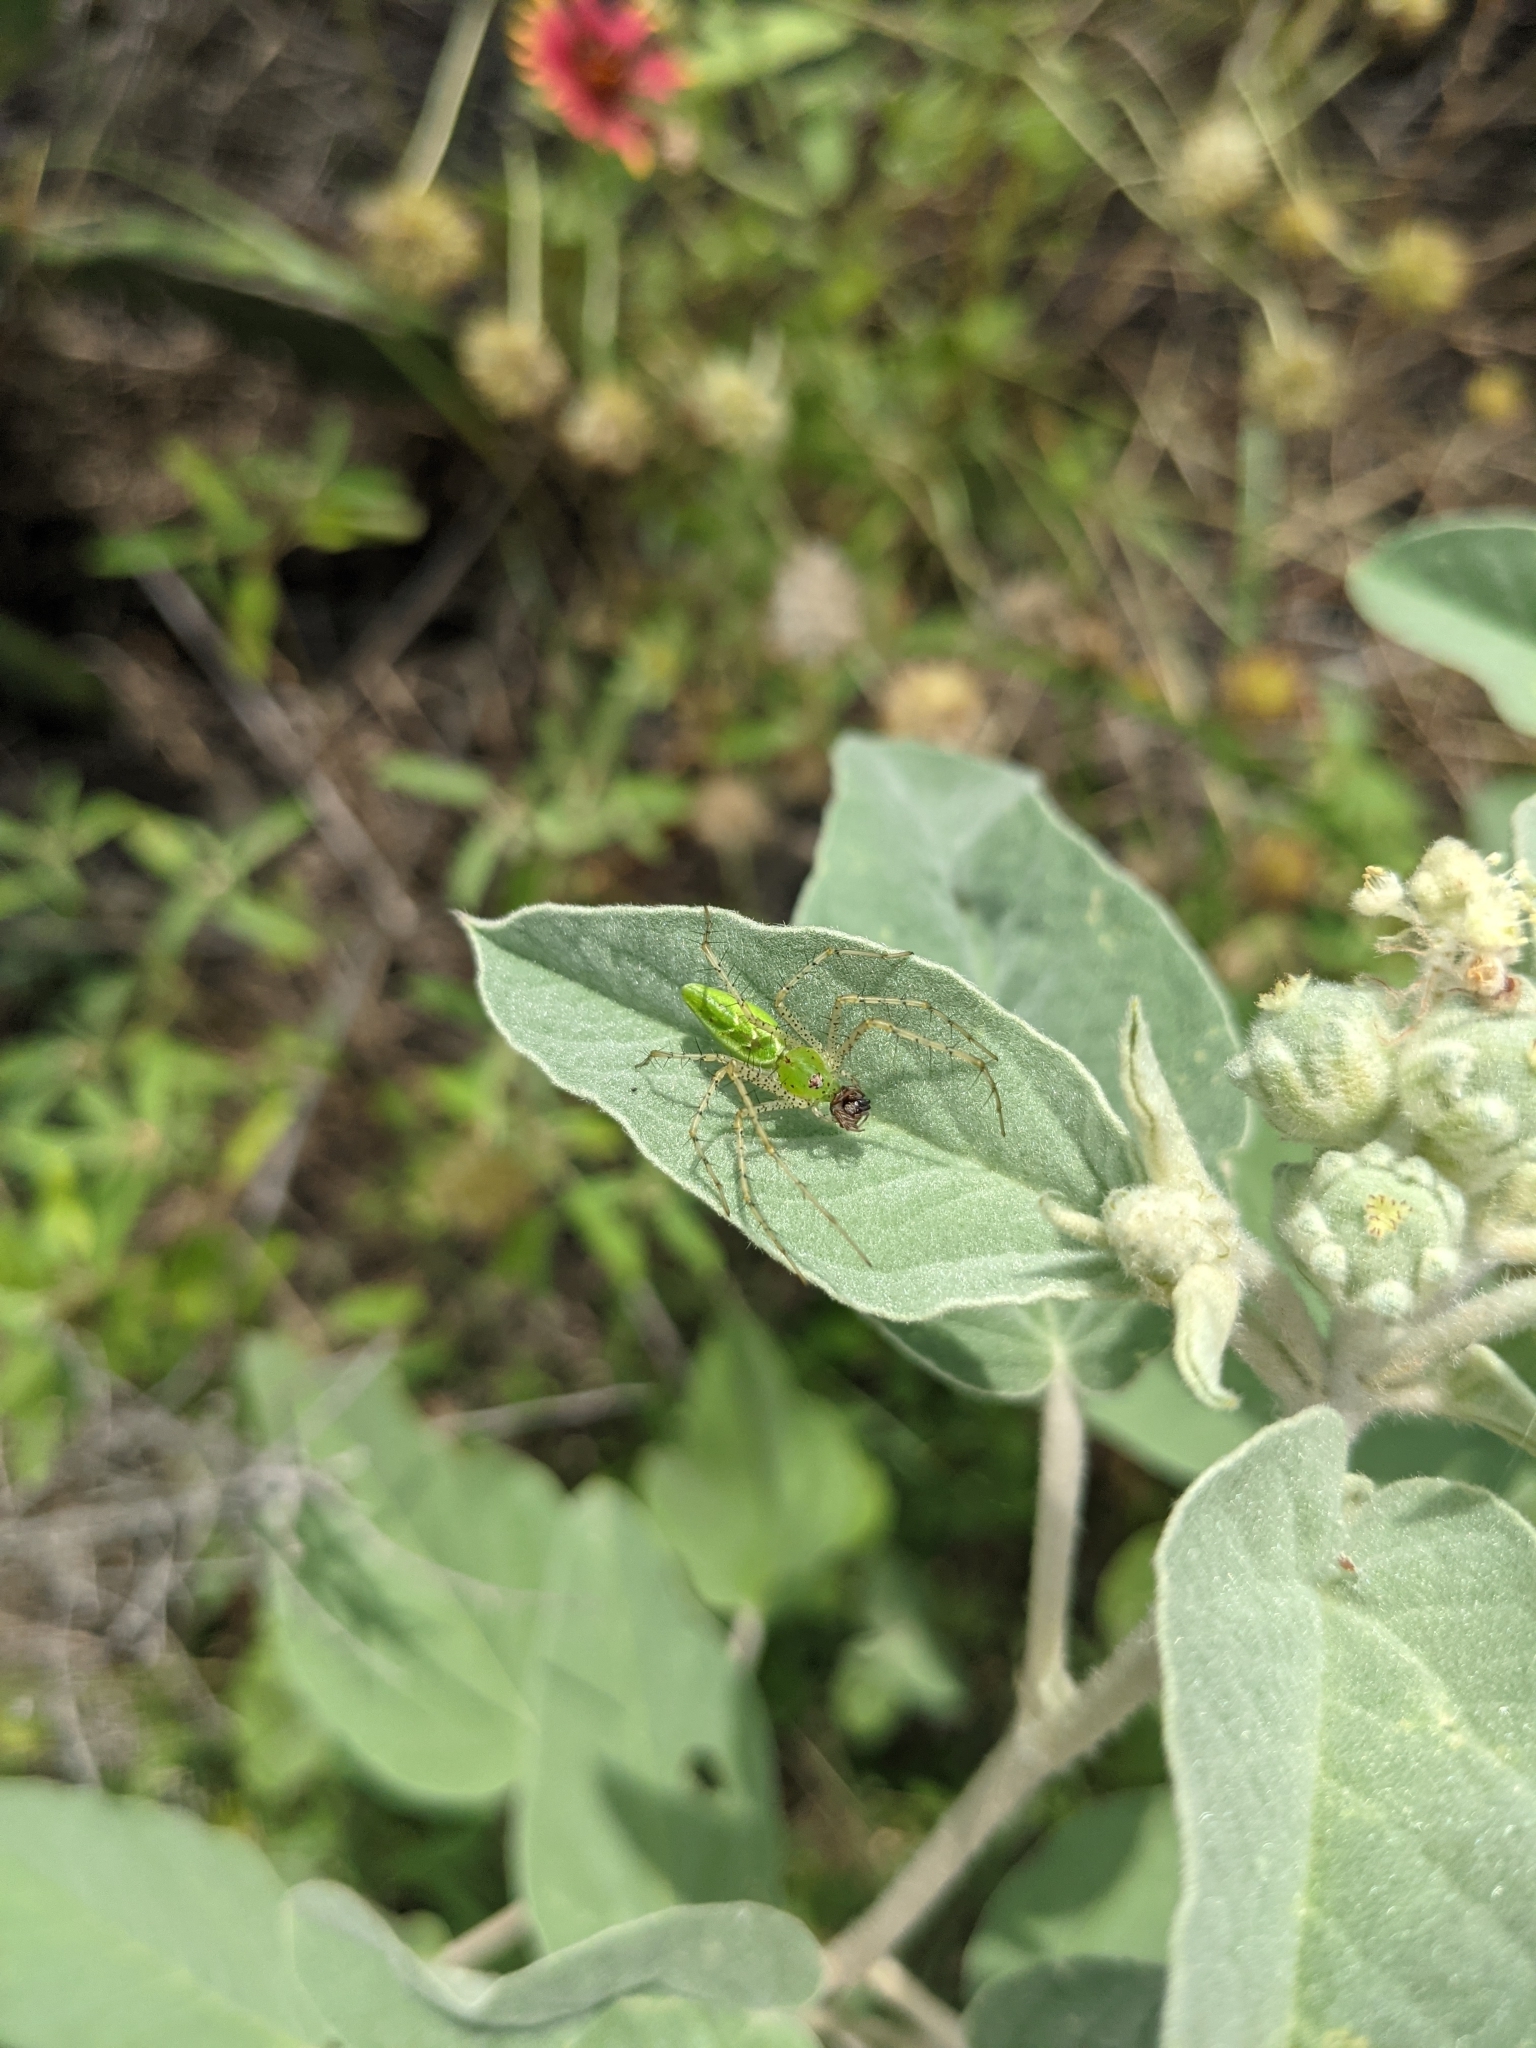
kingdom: Animalia
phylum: Arthropoda
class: Arachnida
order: Araneae
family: Oxyopidae
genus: Peucetia
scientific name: Peucetia viridans
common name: Lynx spiders
